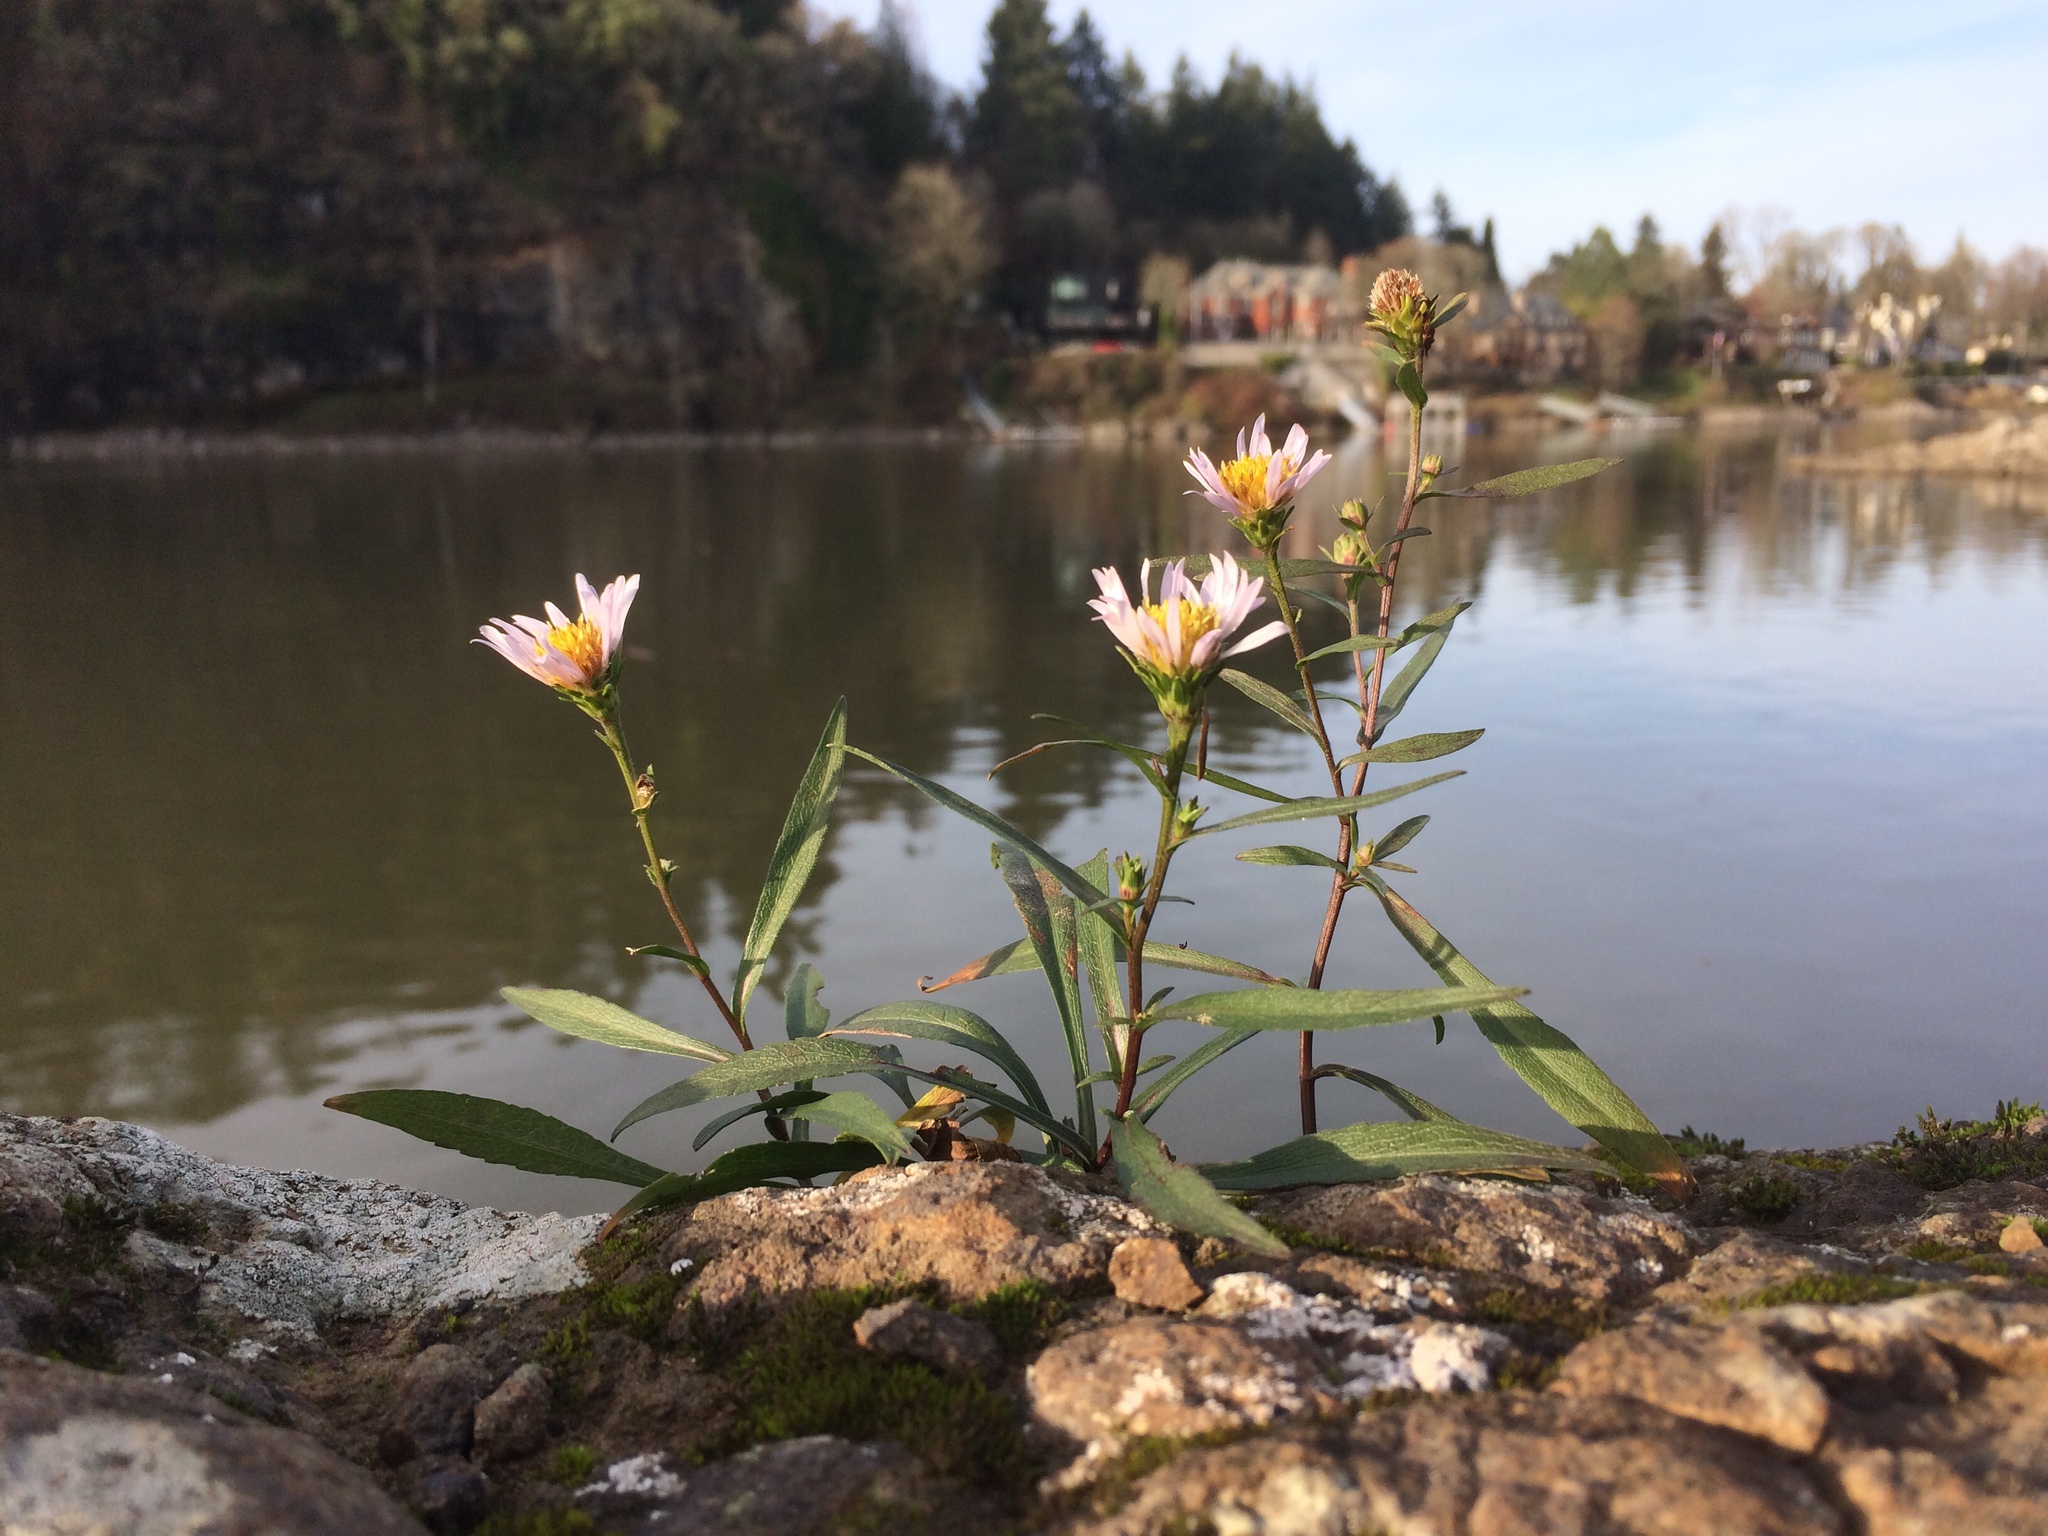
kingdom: Plantae
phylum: Tracheophyta
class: Magnoliopsida
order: Asterales
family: Asteraceae
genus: Symphyotrichum
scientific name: Symphyotrichum subspicatum
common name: Douglas' aster
